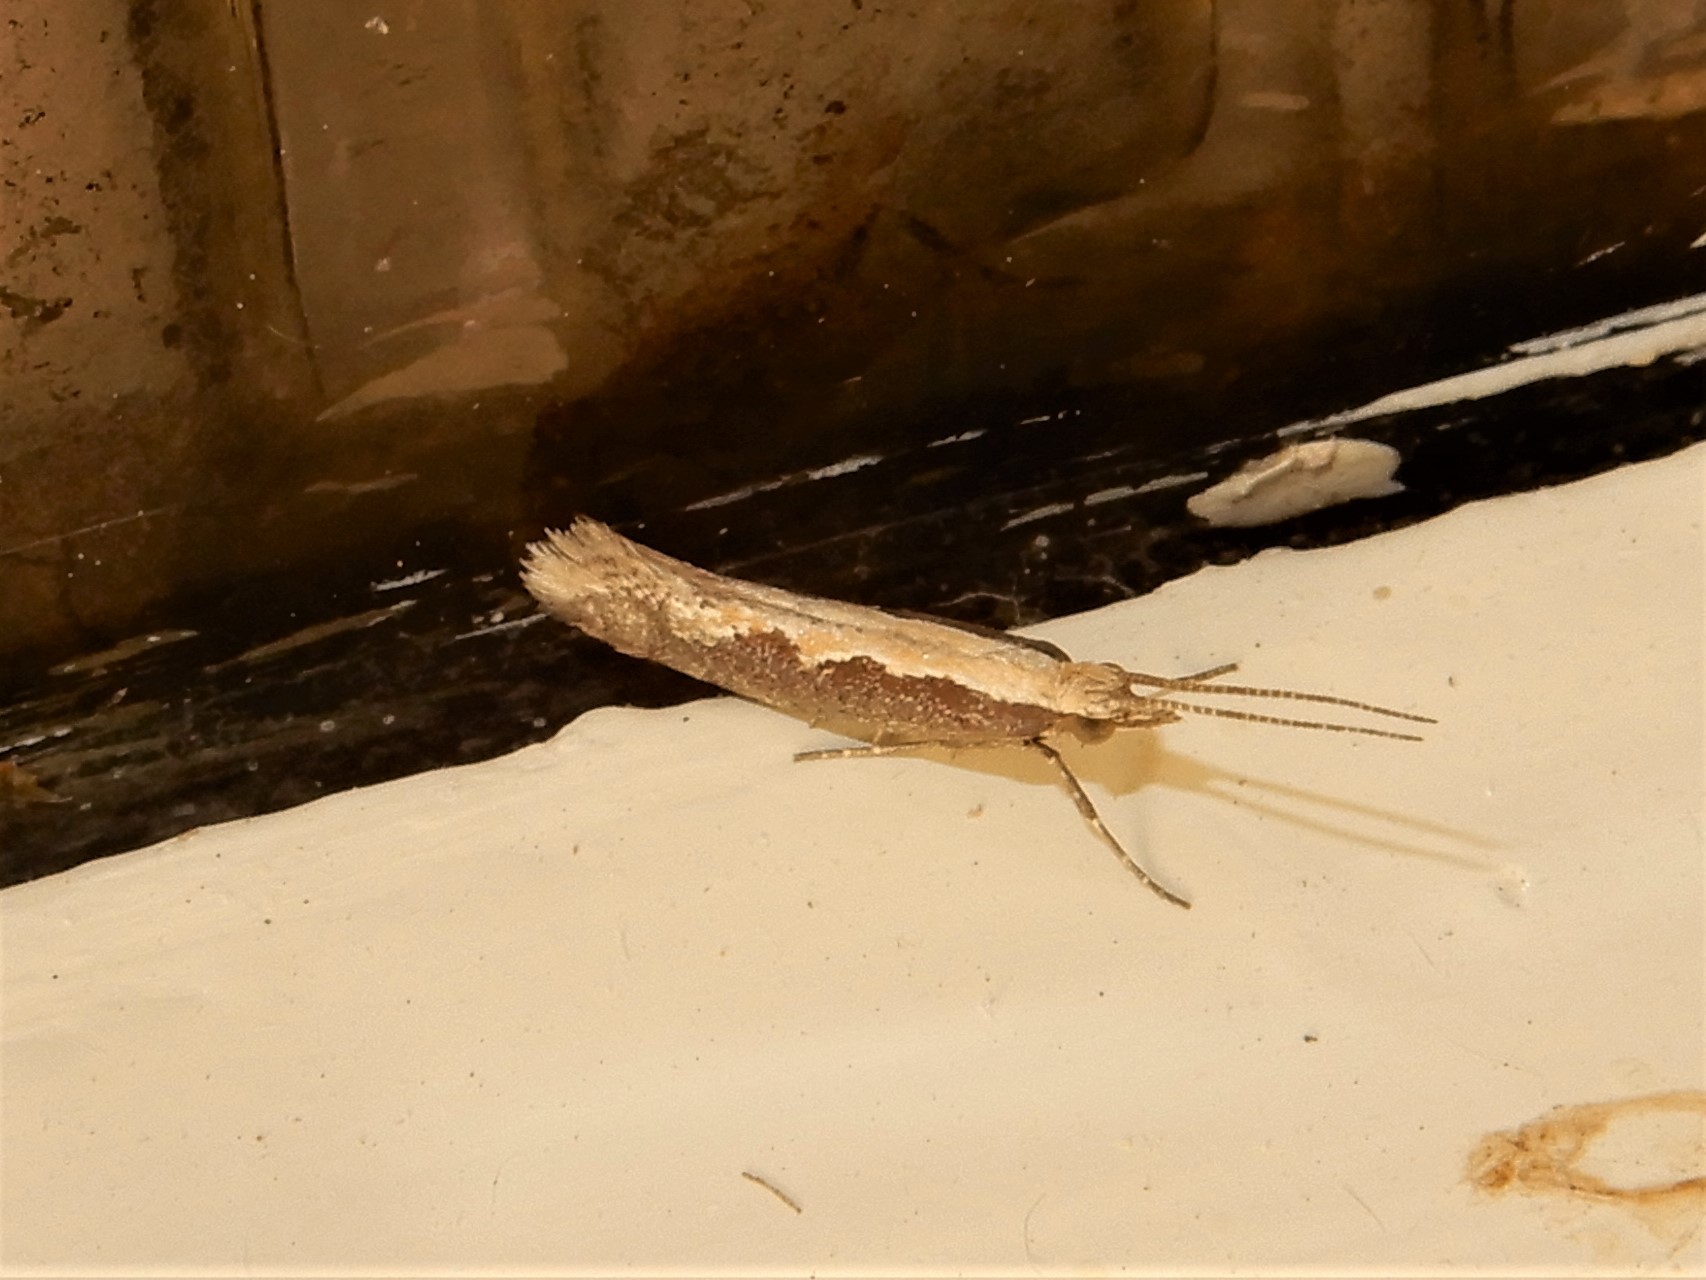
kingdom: Animalia
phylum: Arthropoda
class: Insecta
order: Lepidoptera
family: Plutellidae
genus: Plutella
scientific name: Plutella xylostella
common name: Diamond-back moth
